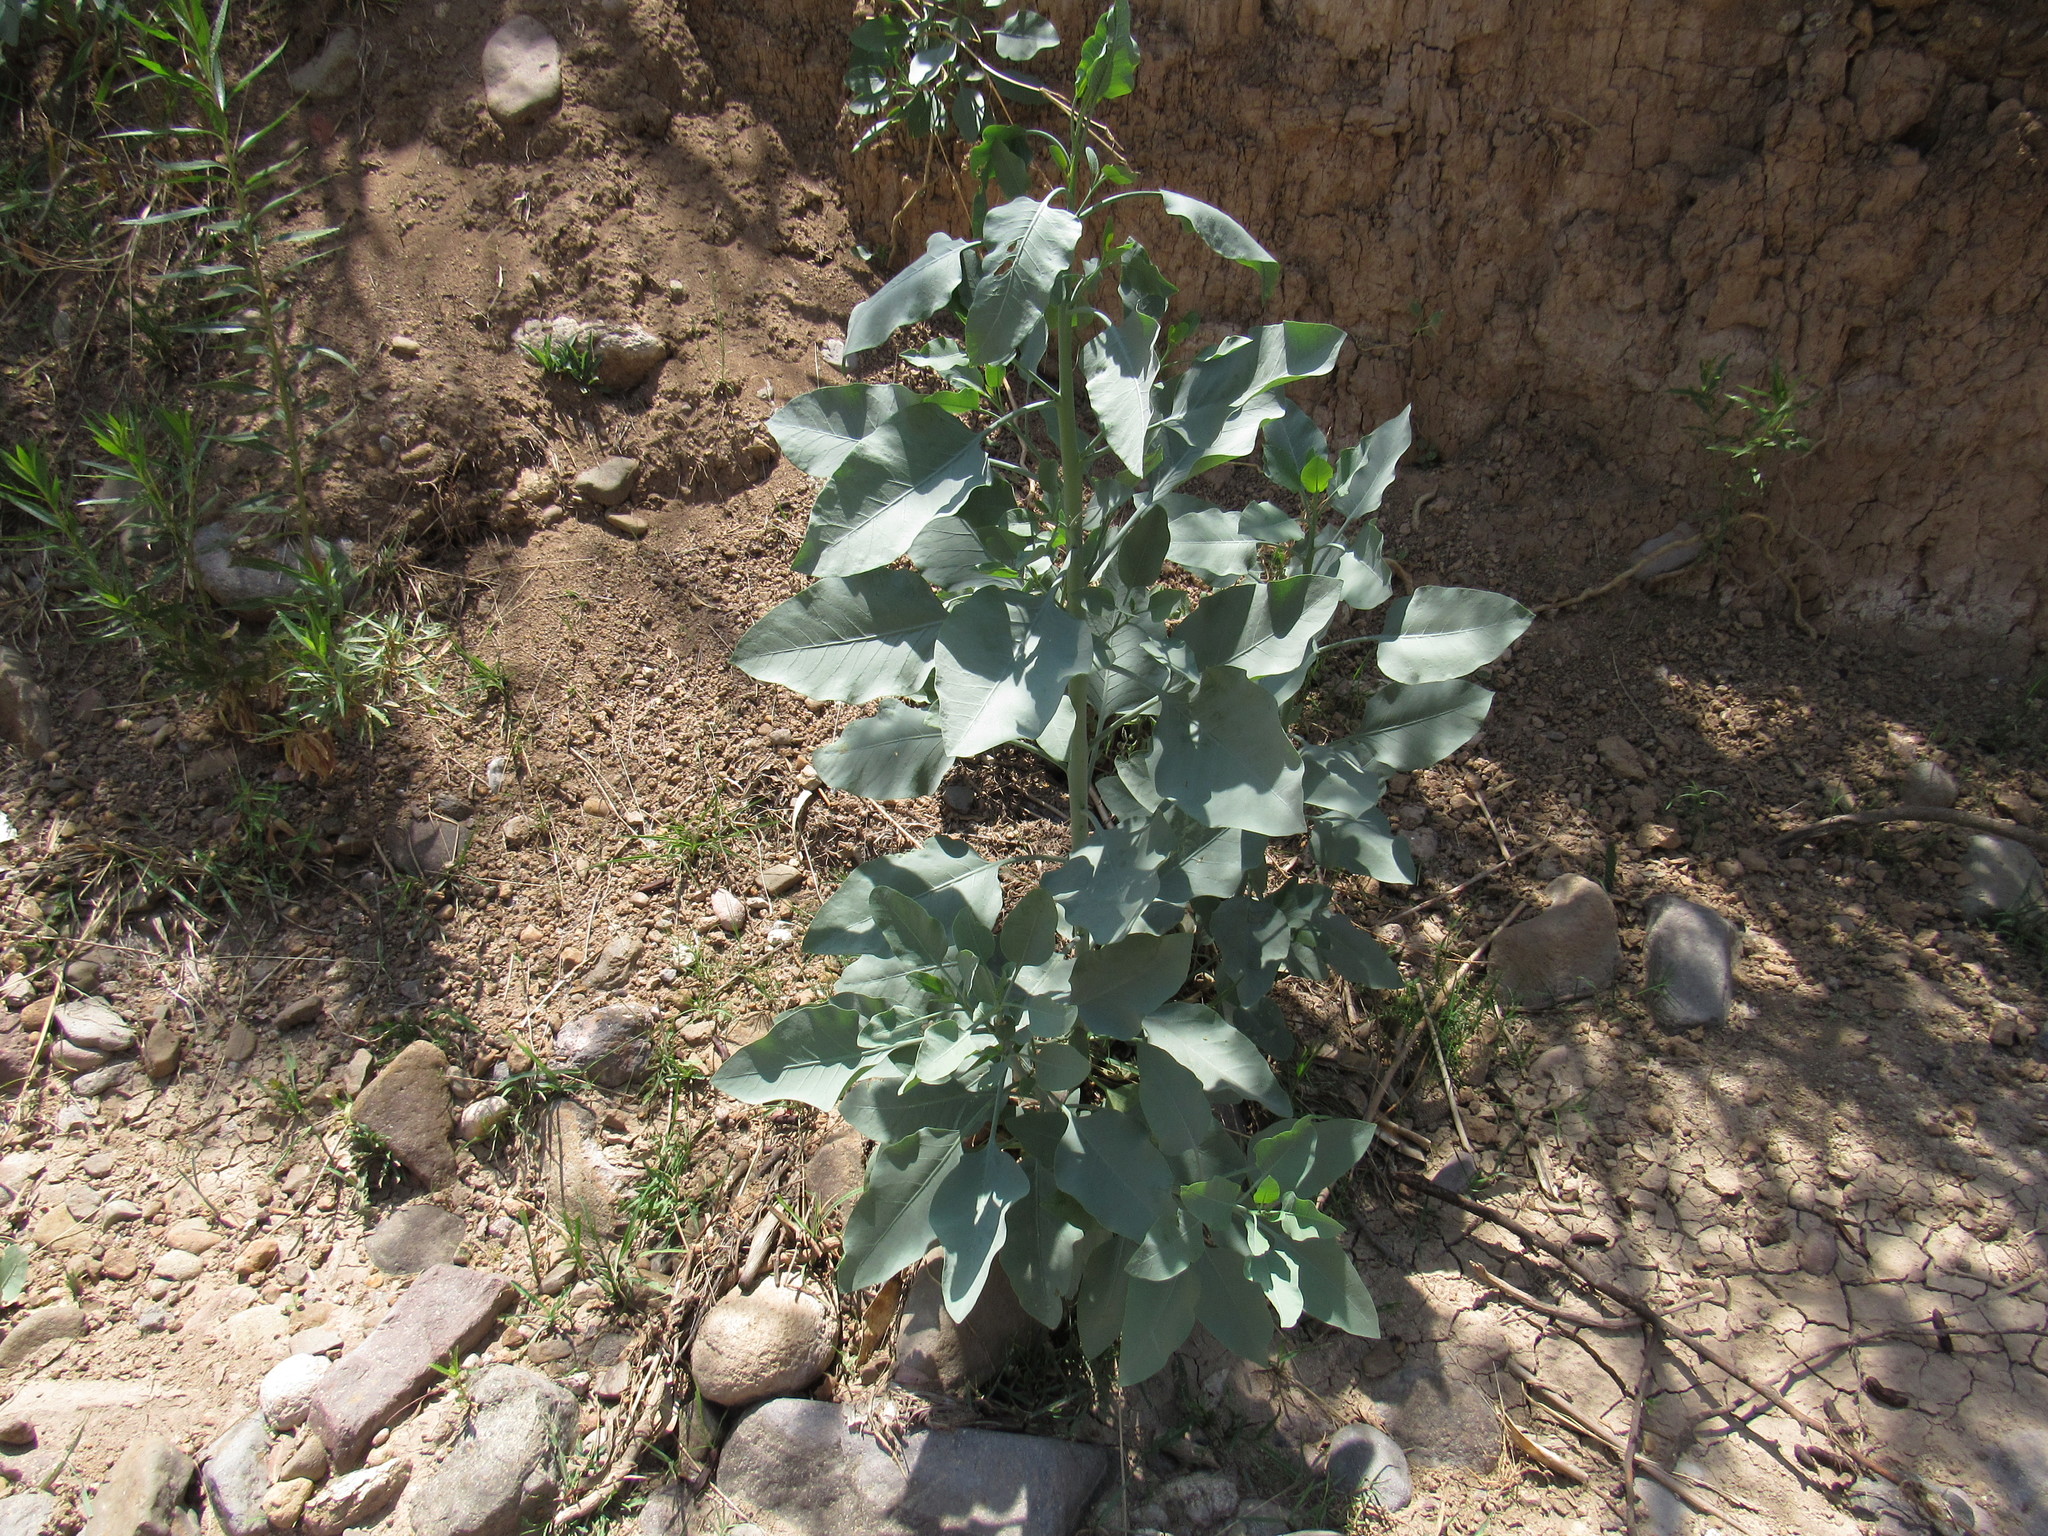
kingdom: Plantae
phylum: Tracheophyta
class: Magnoliopsida
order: Solanales
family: Solanaceae
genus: Nicotiana
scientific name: Nicotiana glauca
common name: Tree tobacco
